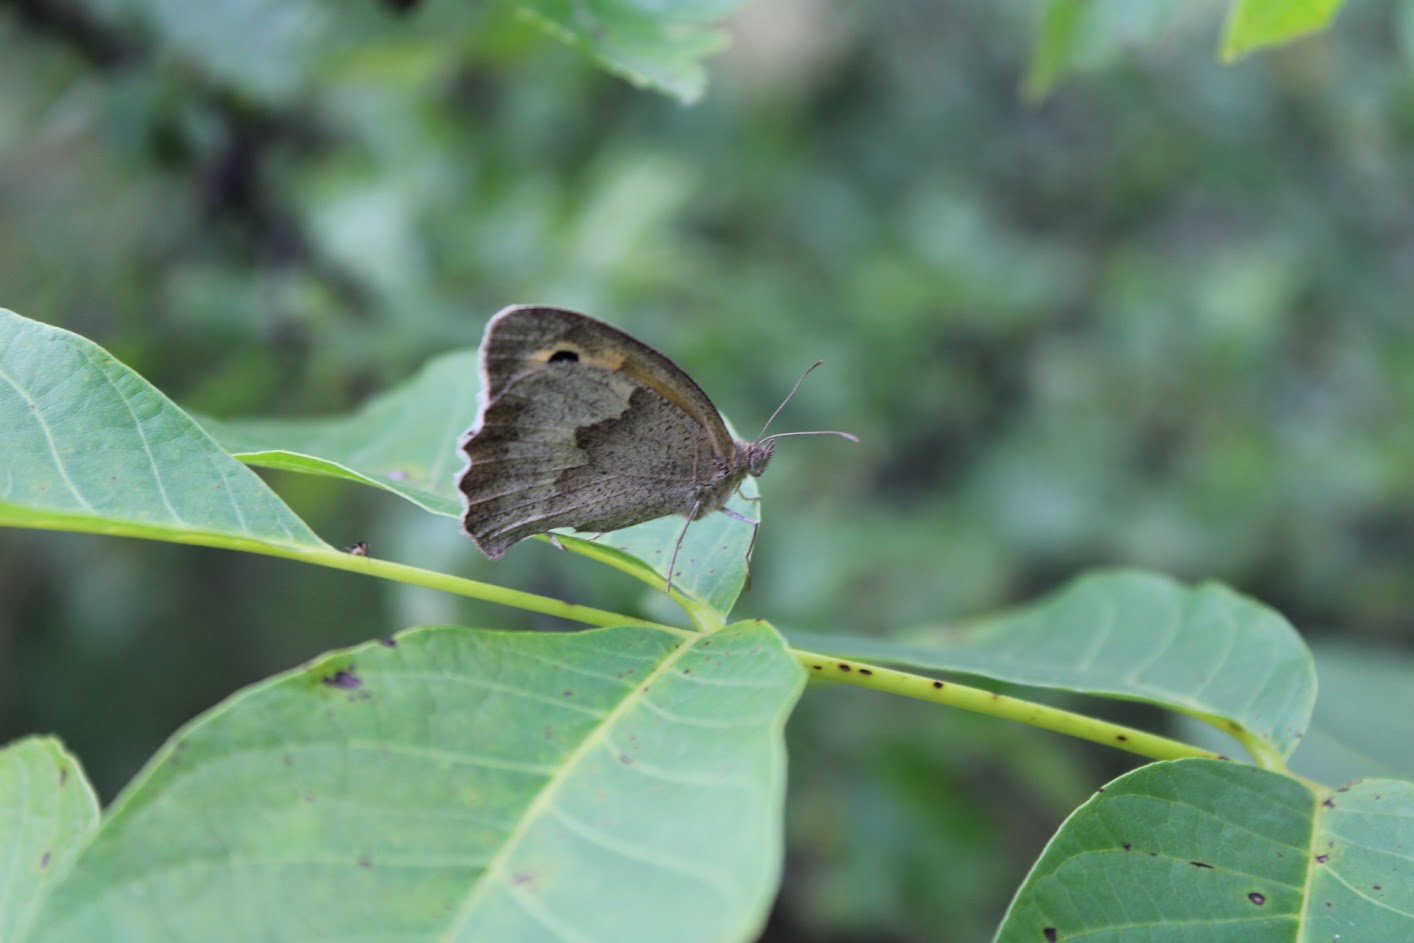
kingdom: Animalia
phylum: Arthropoda
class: Insecta
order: Lepidoptera
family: Nymphalidae
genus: Maniola
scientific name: Maniola jurtina
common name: Meadow brown
